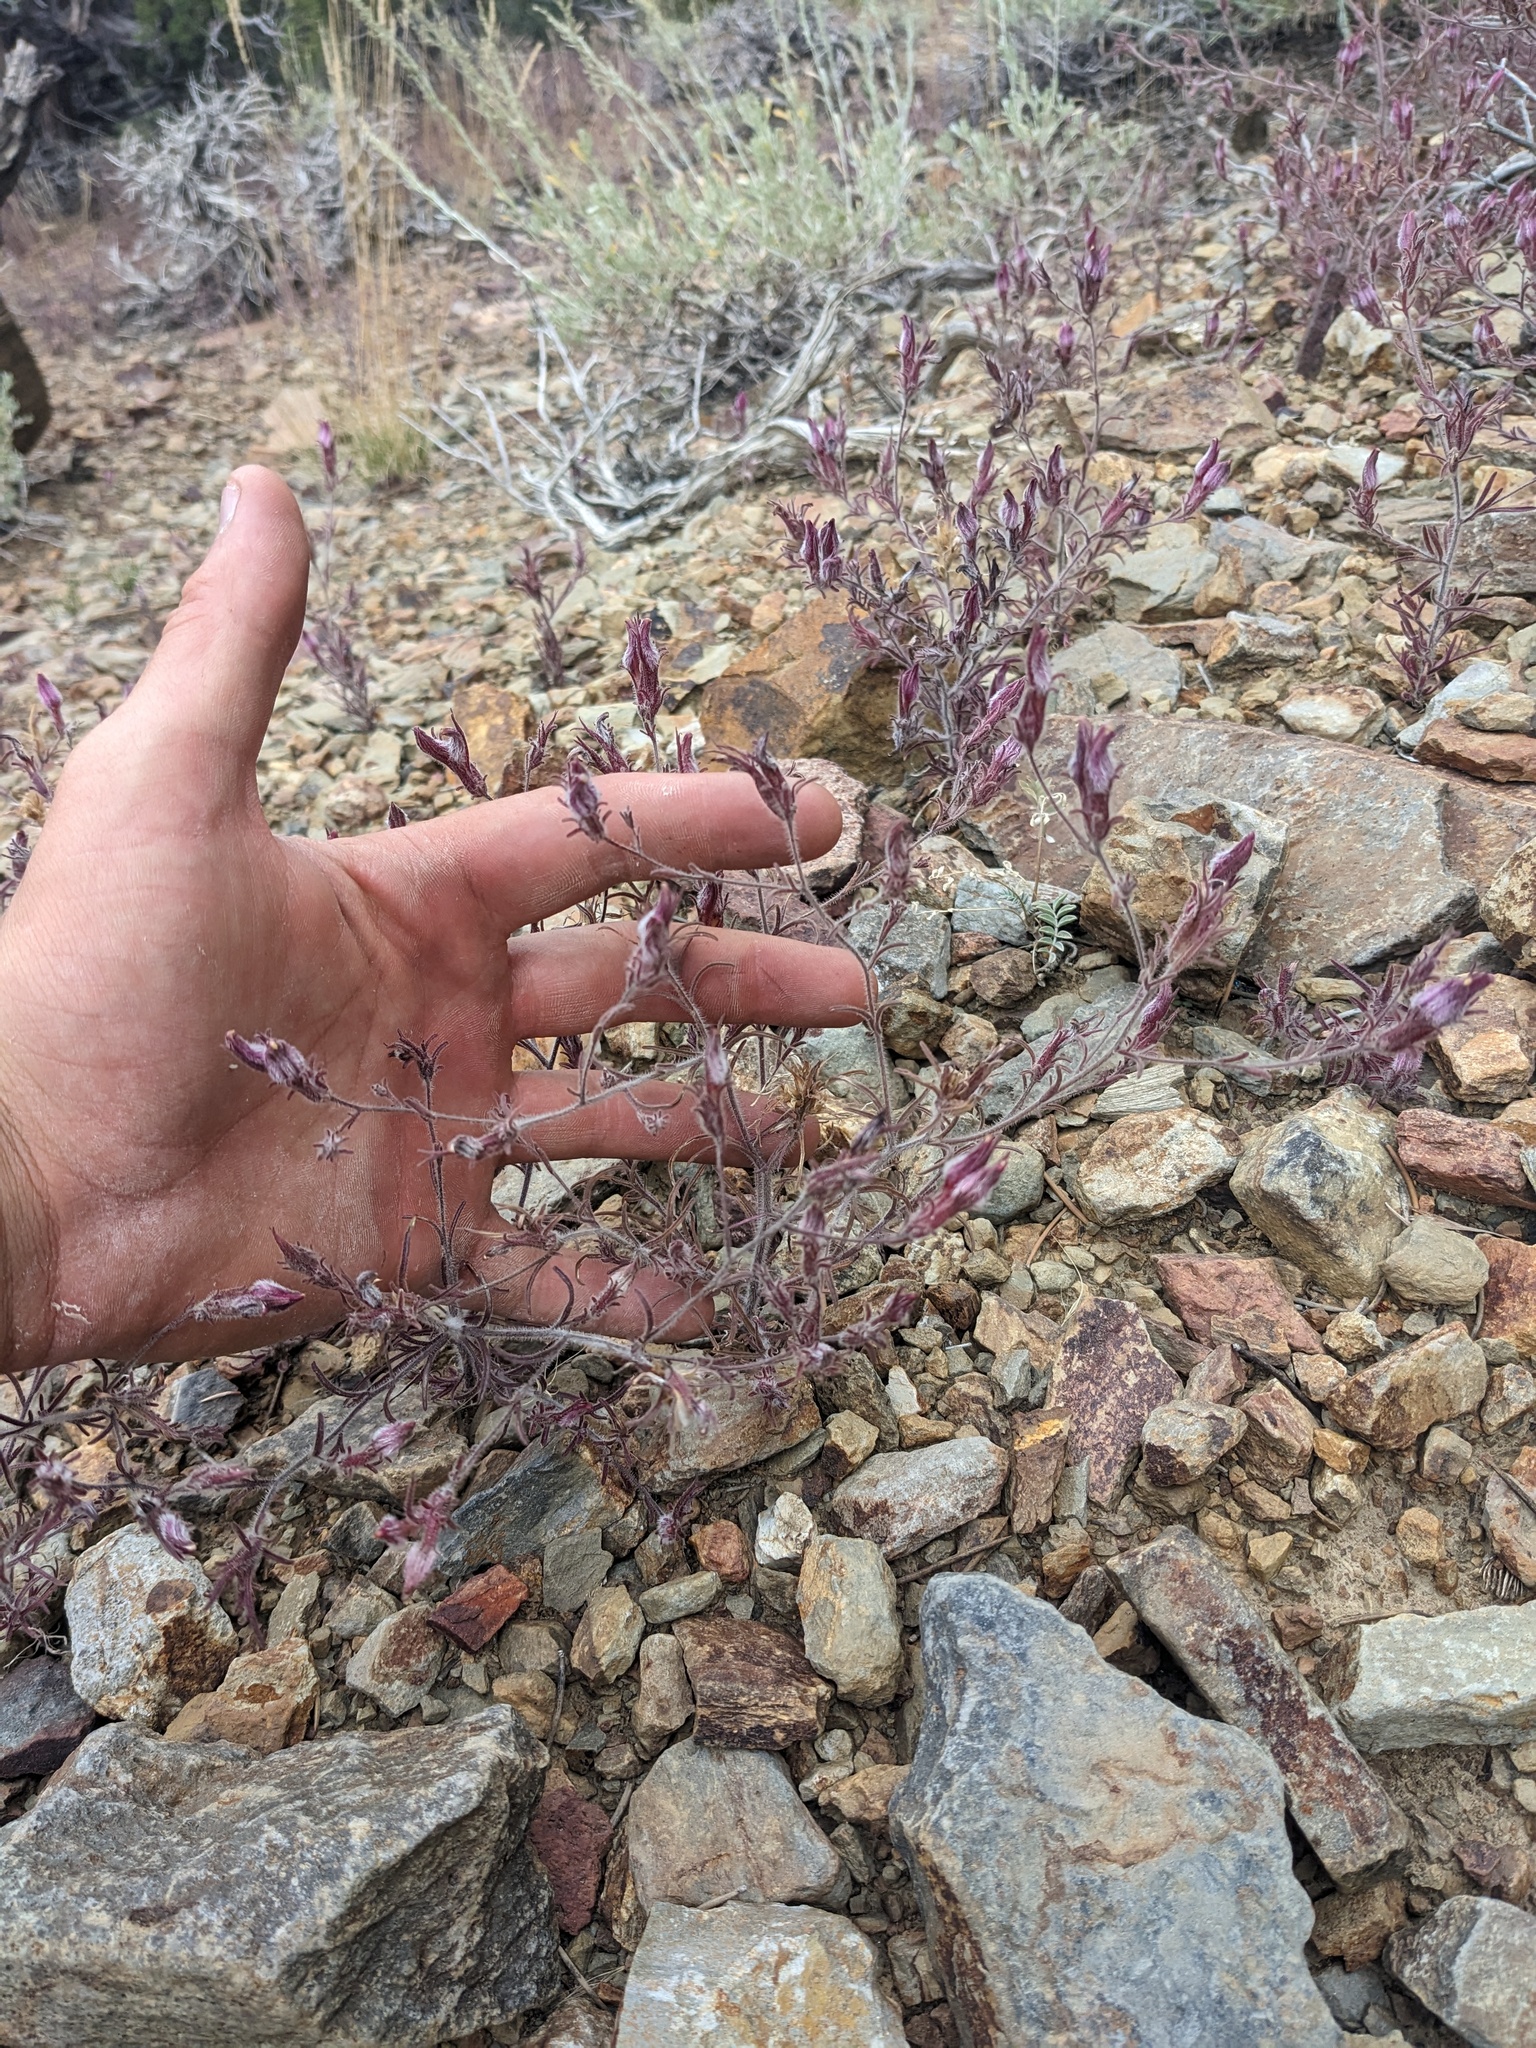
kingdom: Plantae
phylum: Tracheophyta
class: Magnoliopsida
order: Lamiales
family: Orobanchaceae
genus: Cordylanthus
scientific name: Cordylanthus kingii
